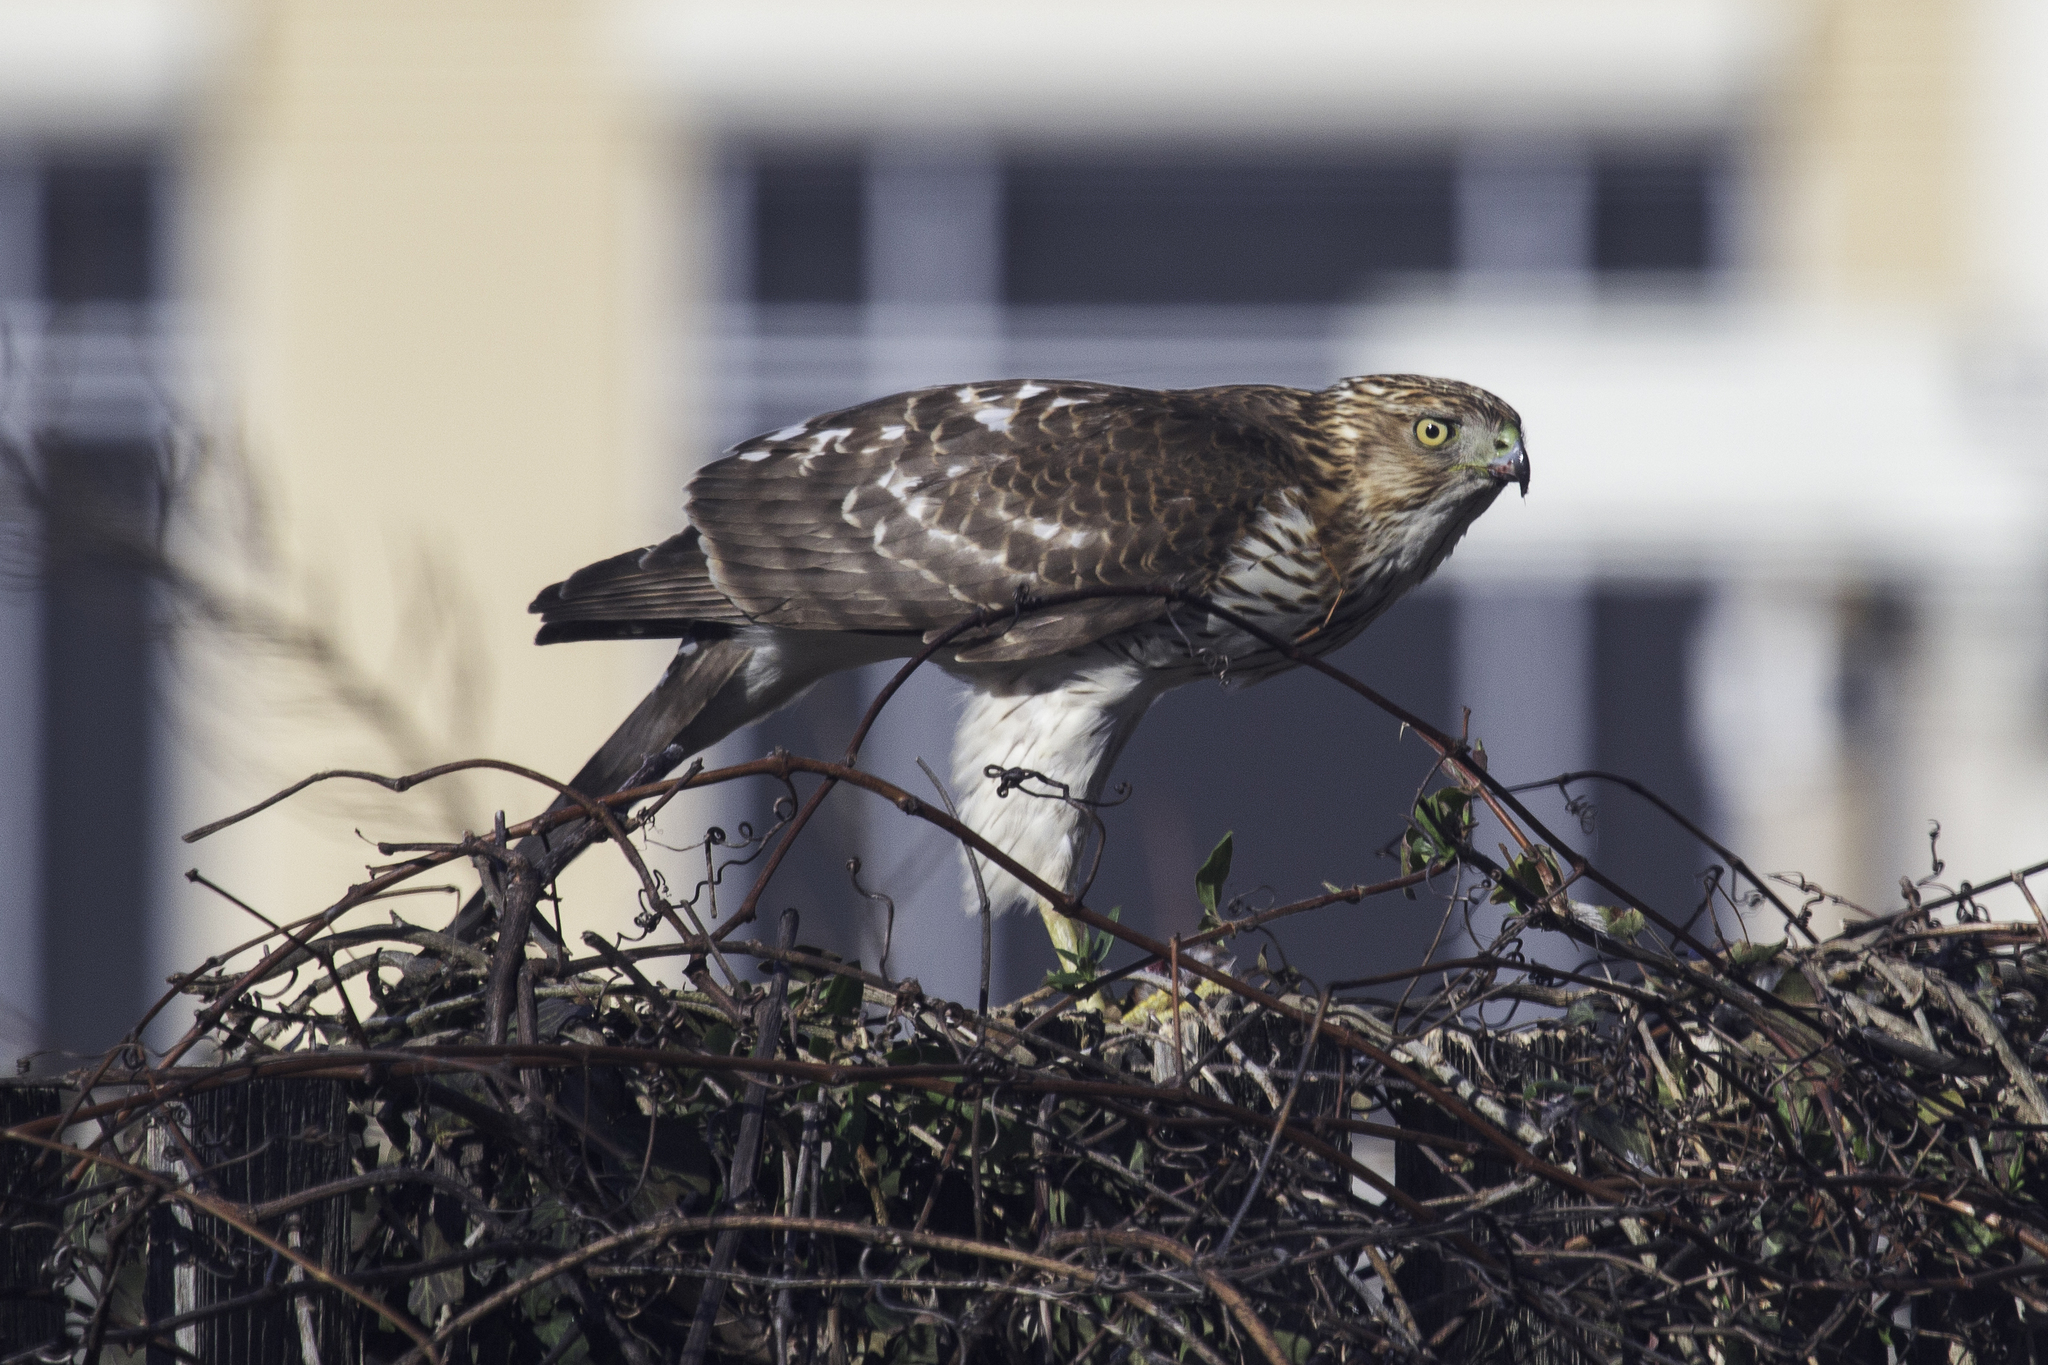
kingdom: Animalia
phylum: Chordata
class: Aves
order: Accipitriformes
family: Accipitridae
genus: Accipiter
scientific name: Accipiter cooperii
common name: Cooper's hawk
